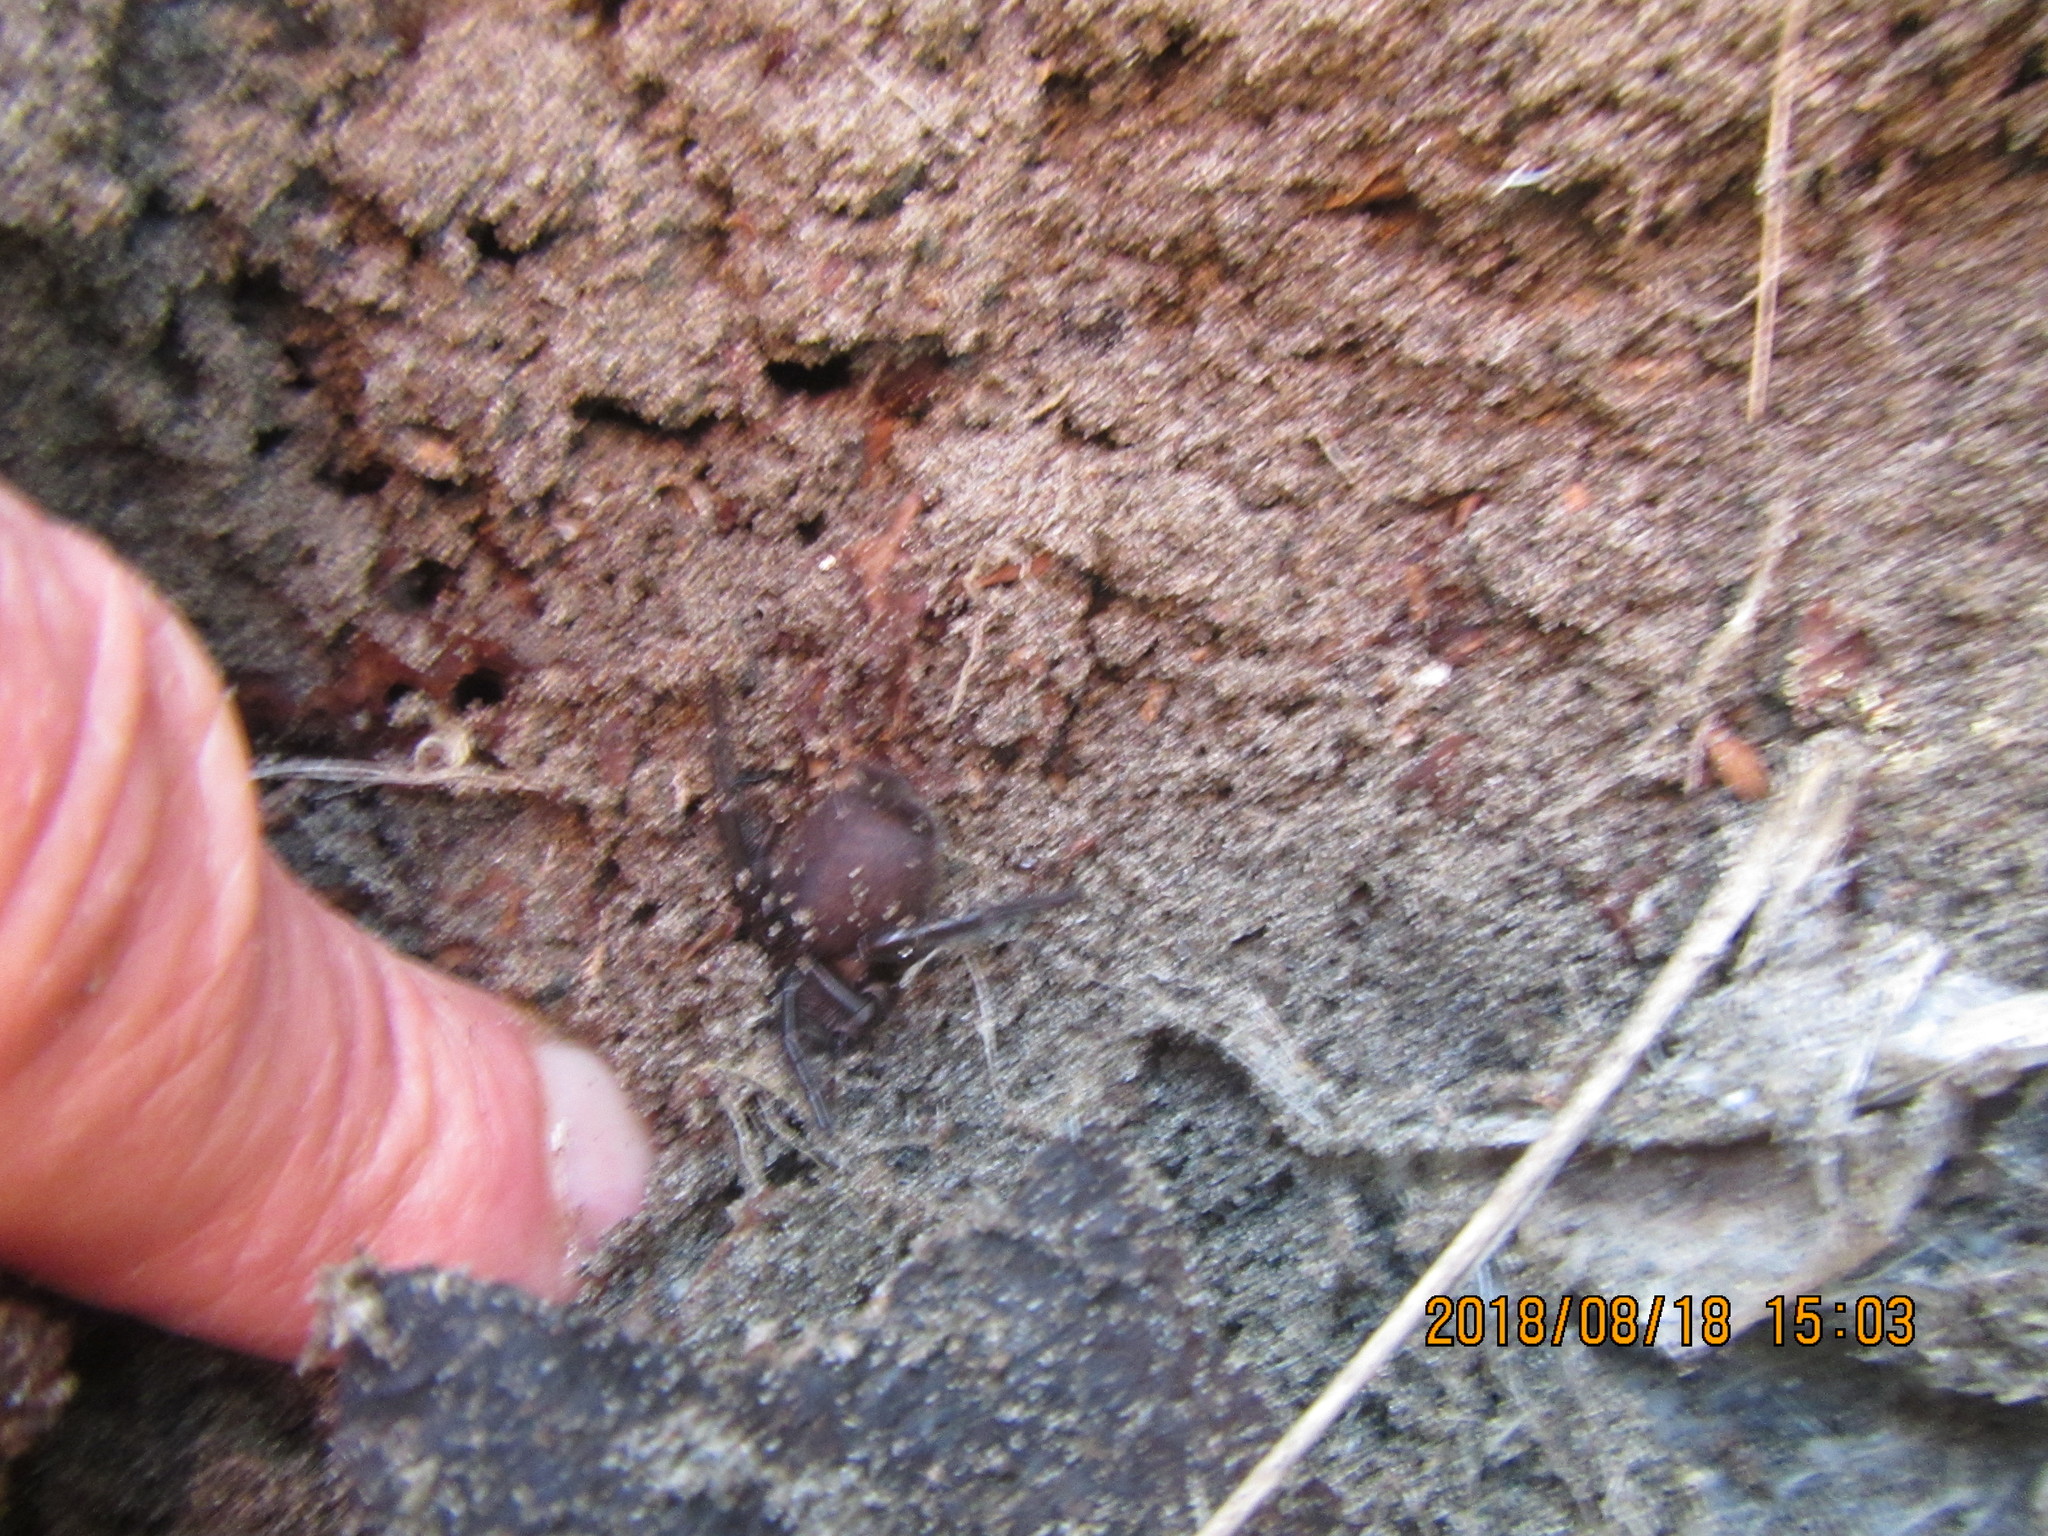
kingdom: Animalia
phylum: Arthropoda
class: Arachnida
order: Araneae
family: Porrhothelidae
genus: Porrhothele
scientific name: Porrhothele antipodiana
